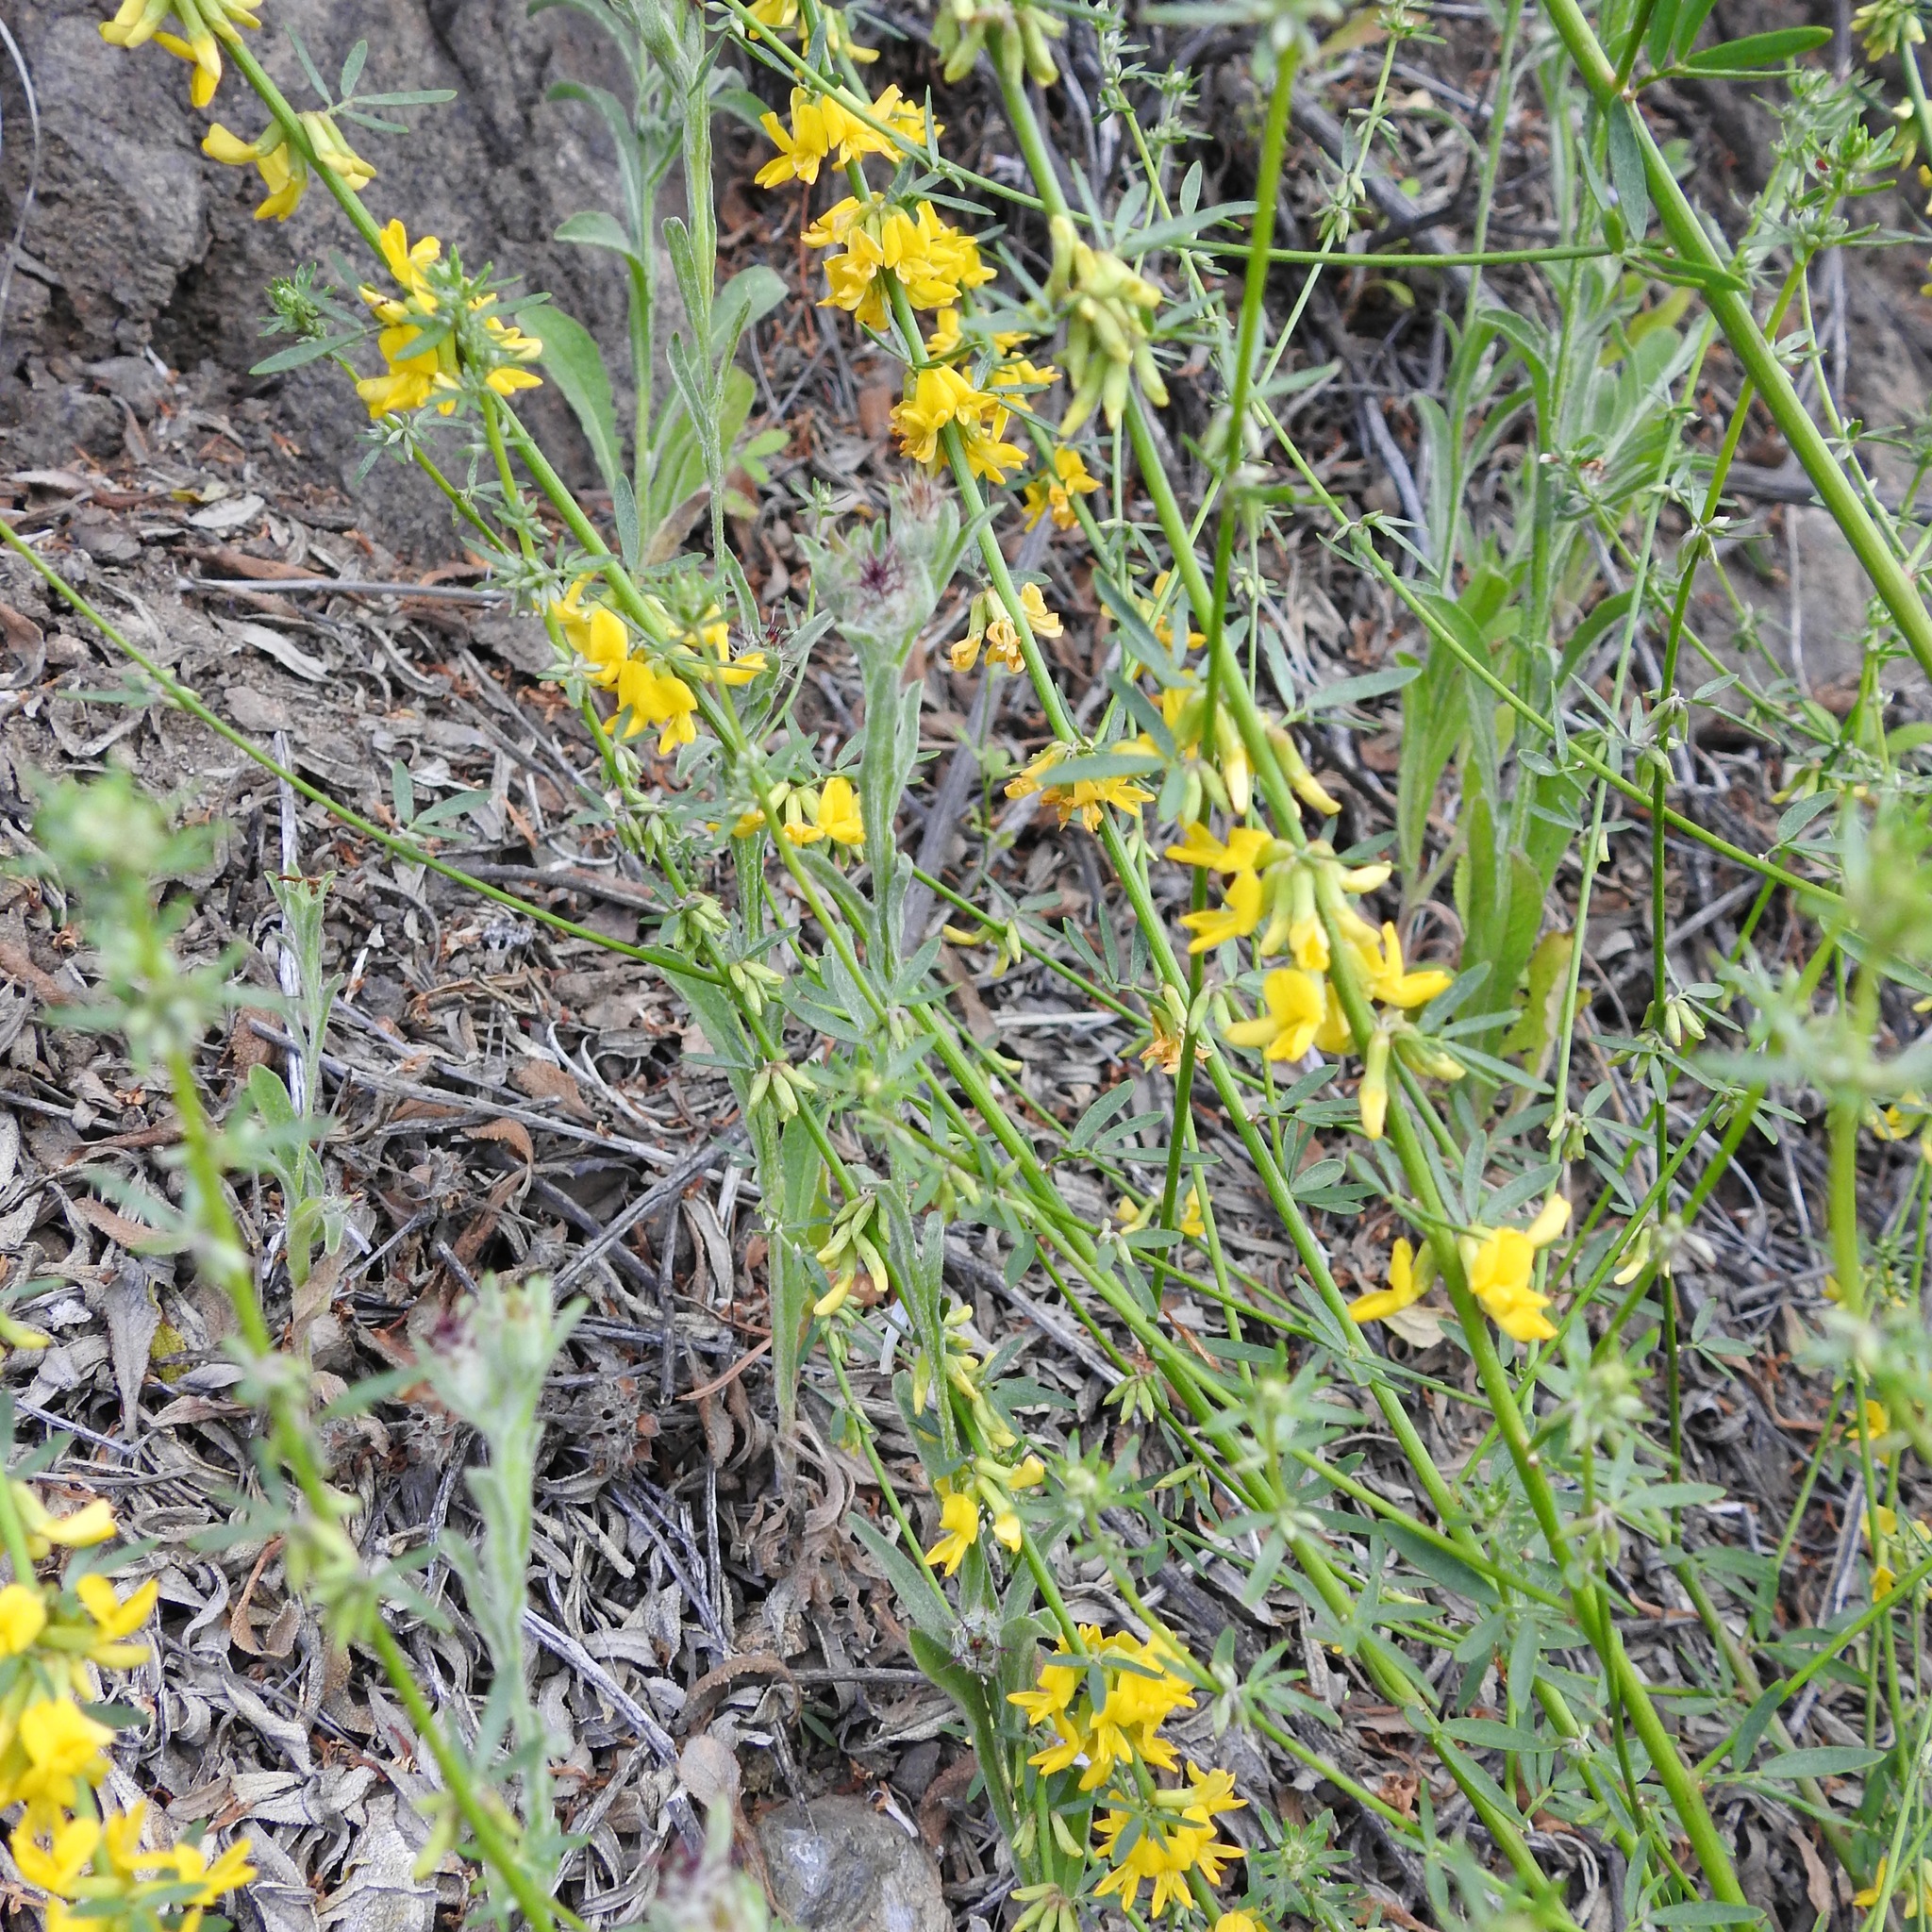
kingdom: Plantae
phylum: Tracheophyta
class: Magnoliopsida
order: Fabales
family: Fabaceae
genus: Acmispon
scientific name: Acmispon glaber
